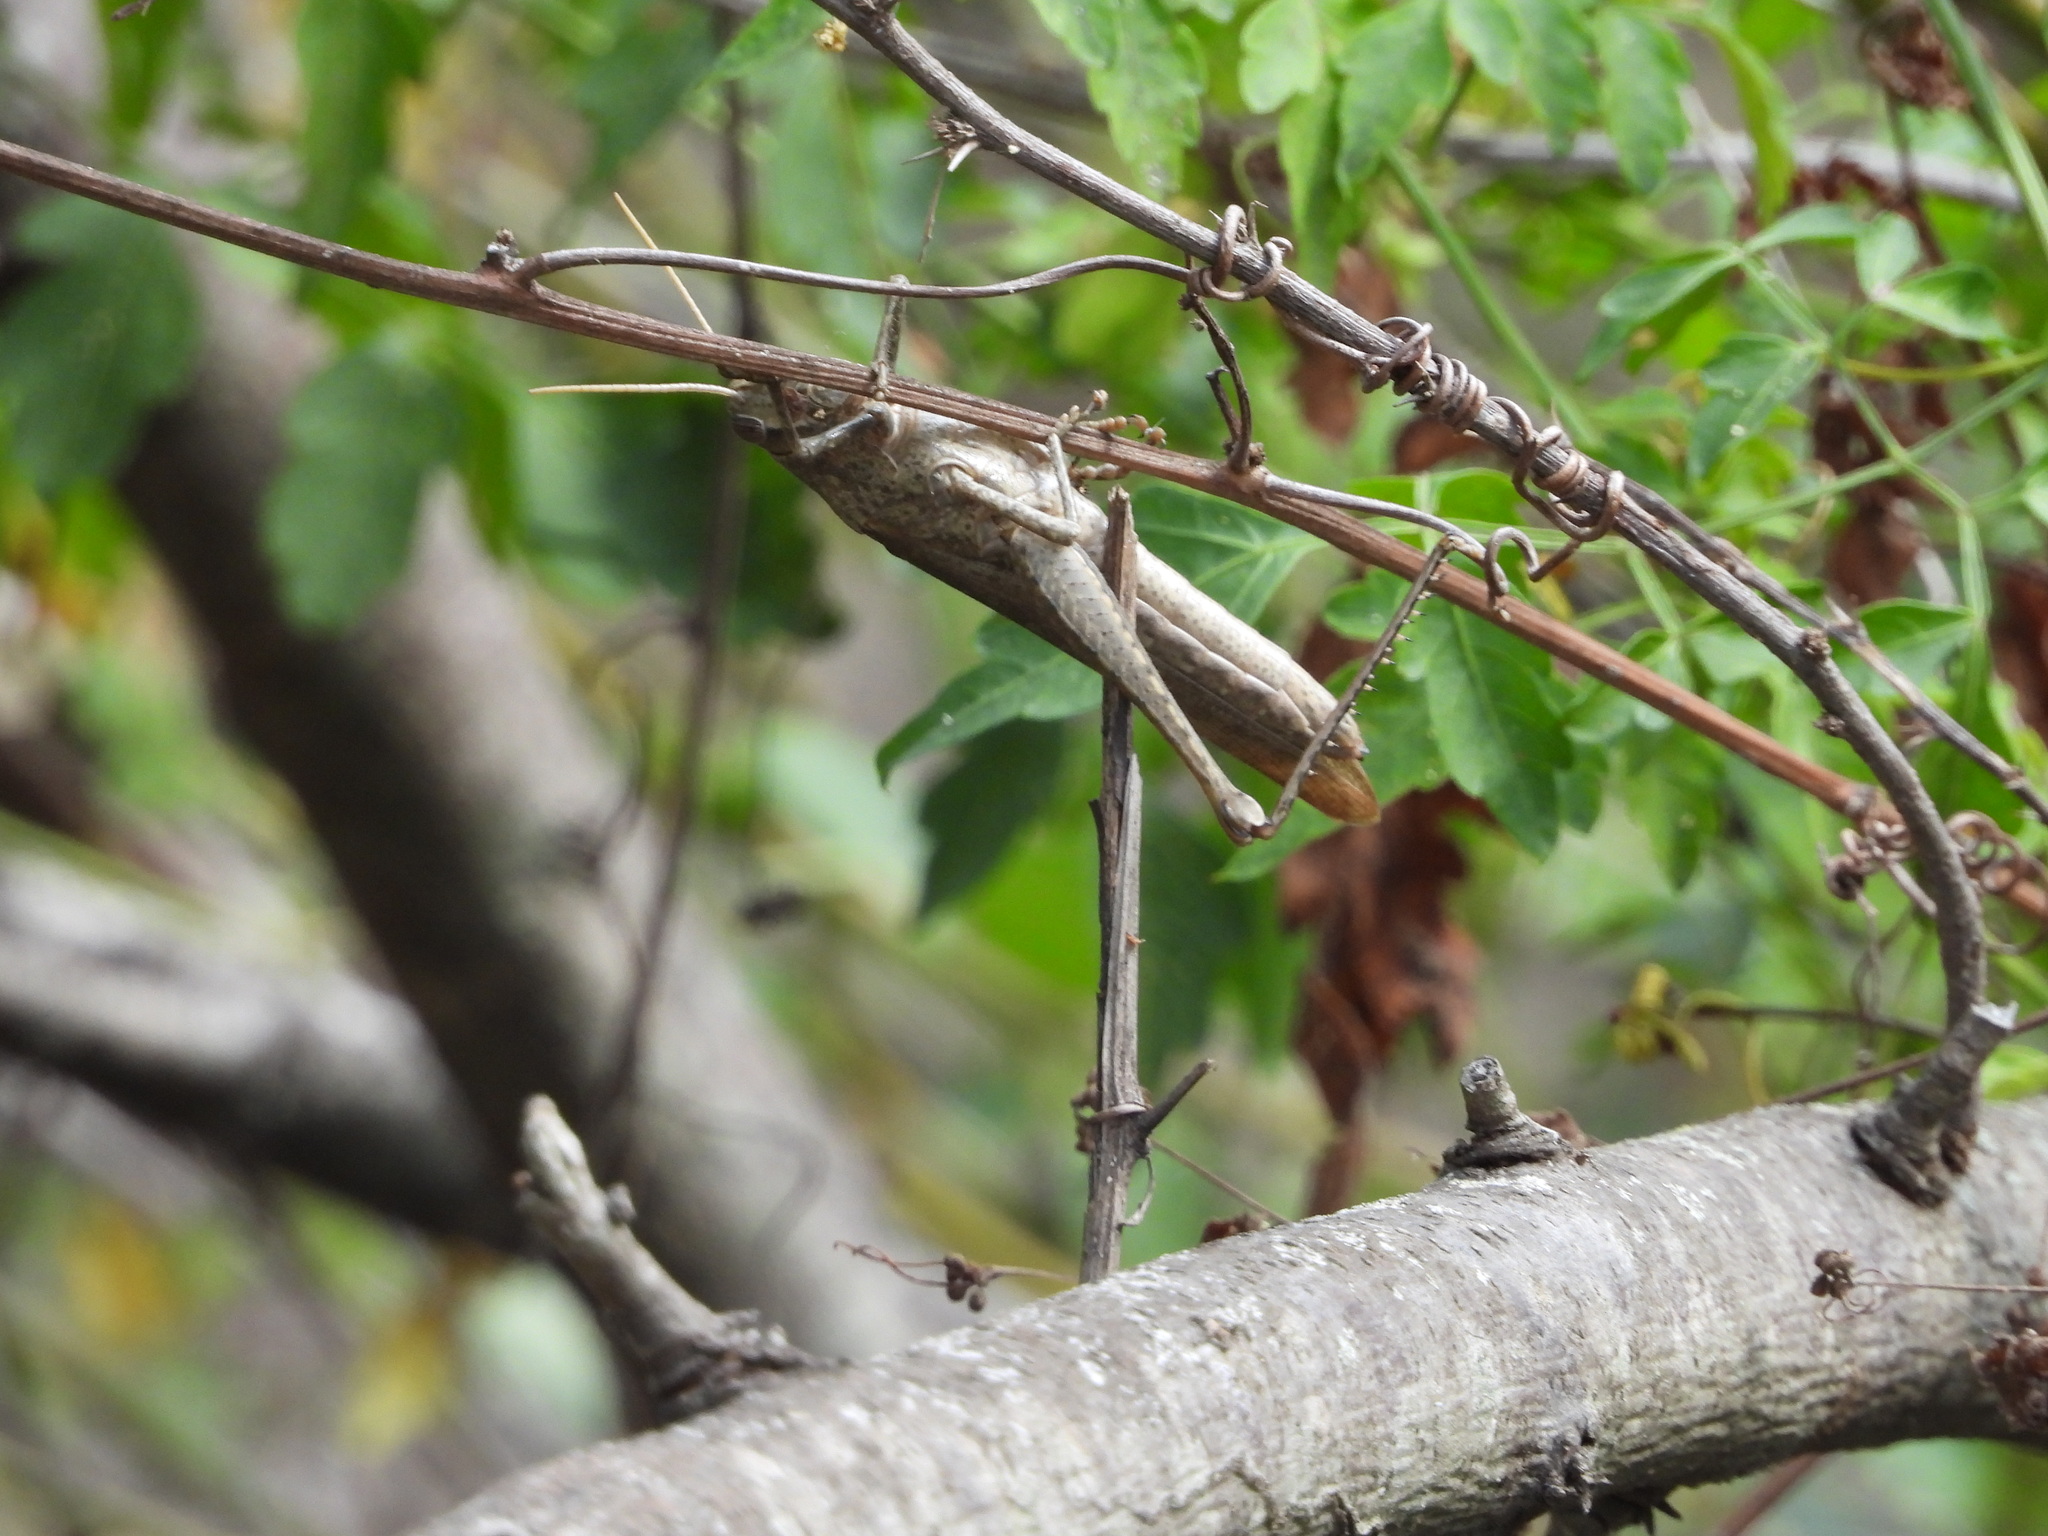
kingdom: Animalia
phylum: Arthropoda
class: Insecta
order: Orthoptera
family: Acrididae
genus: Schistocerca
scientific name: Schistocerca impleta
